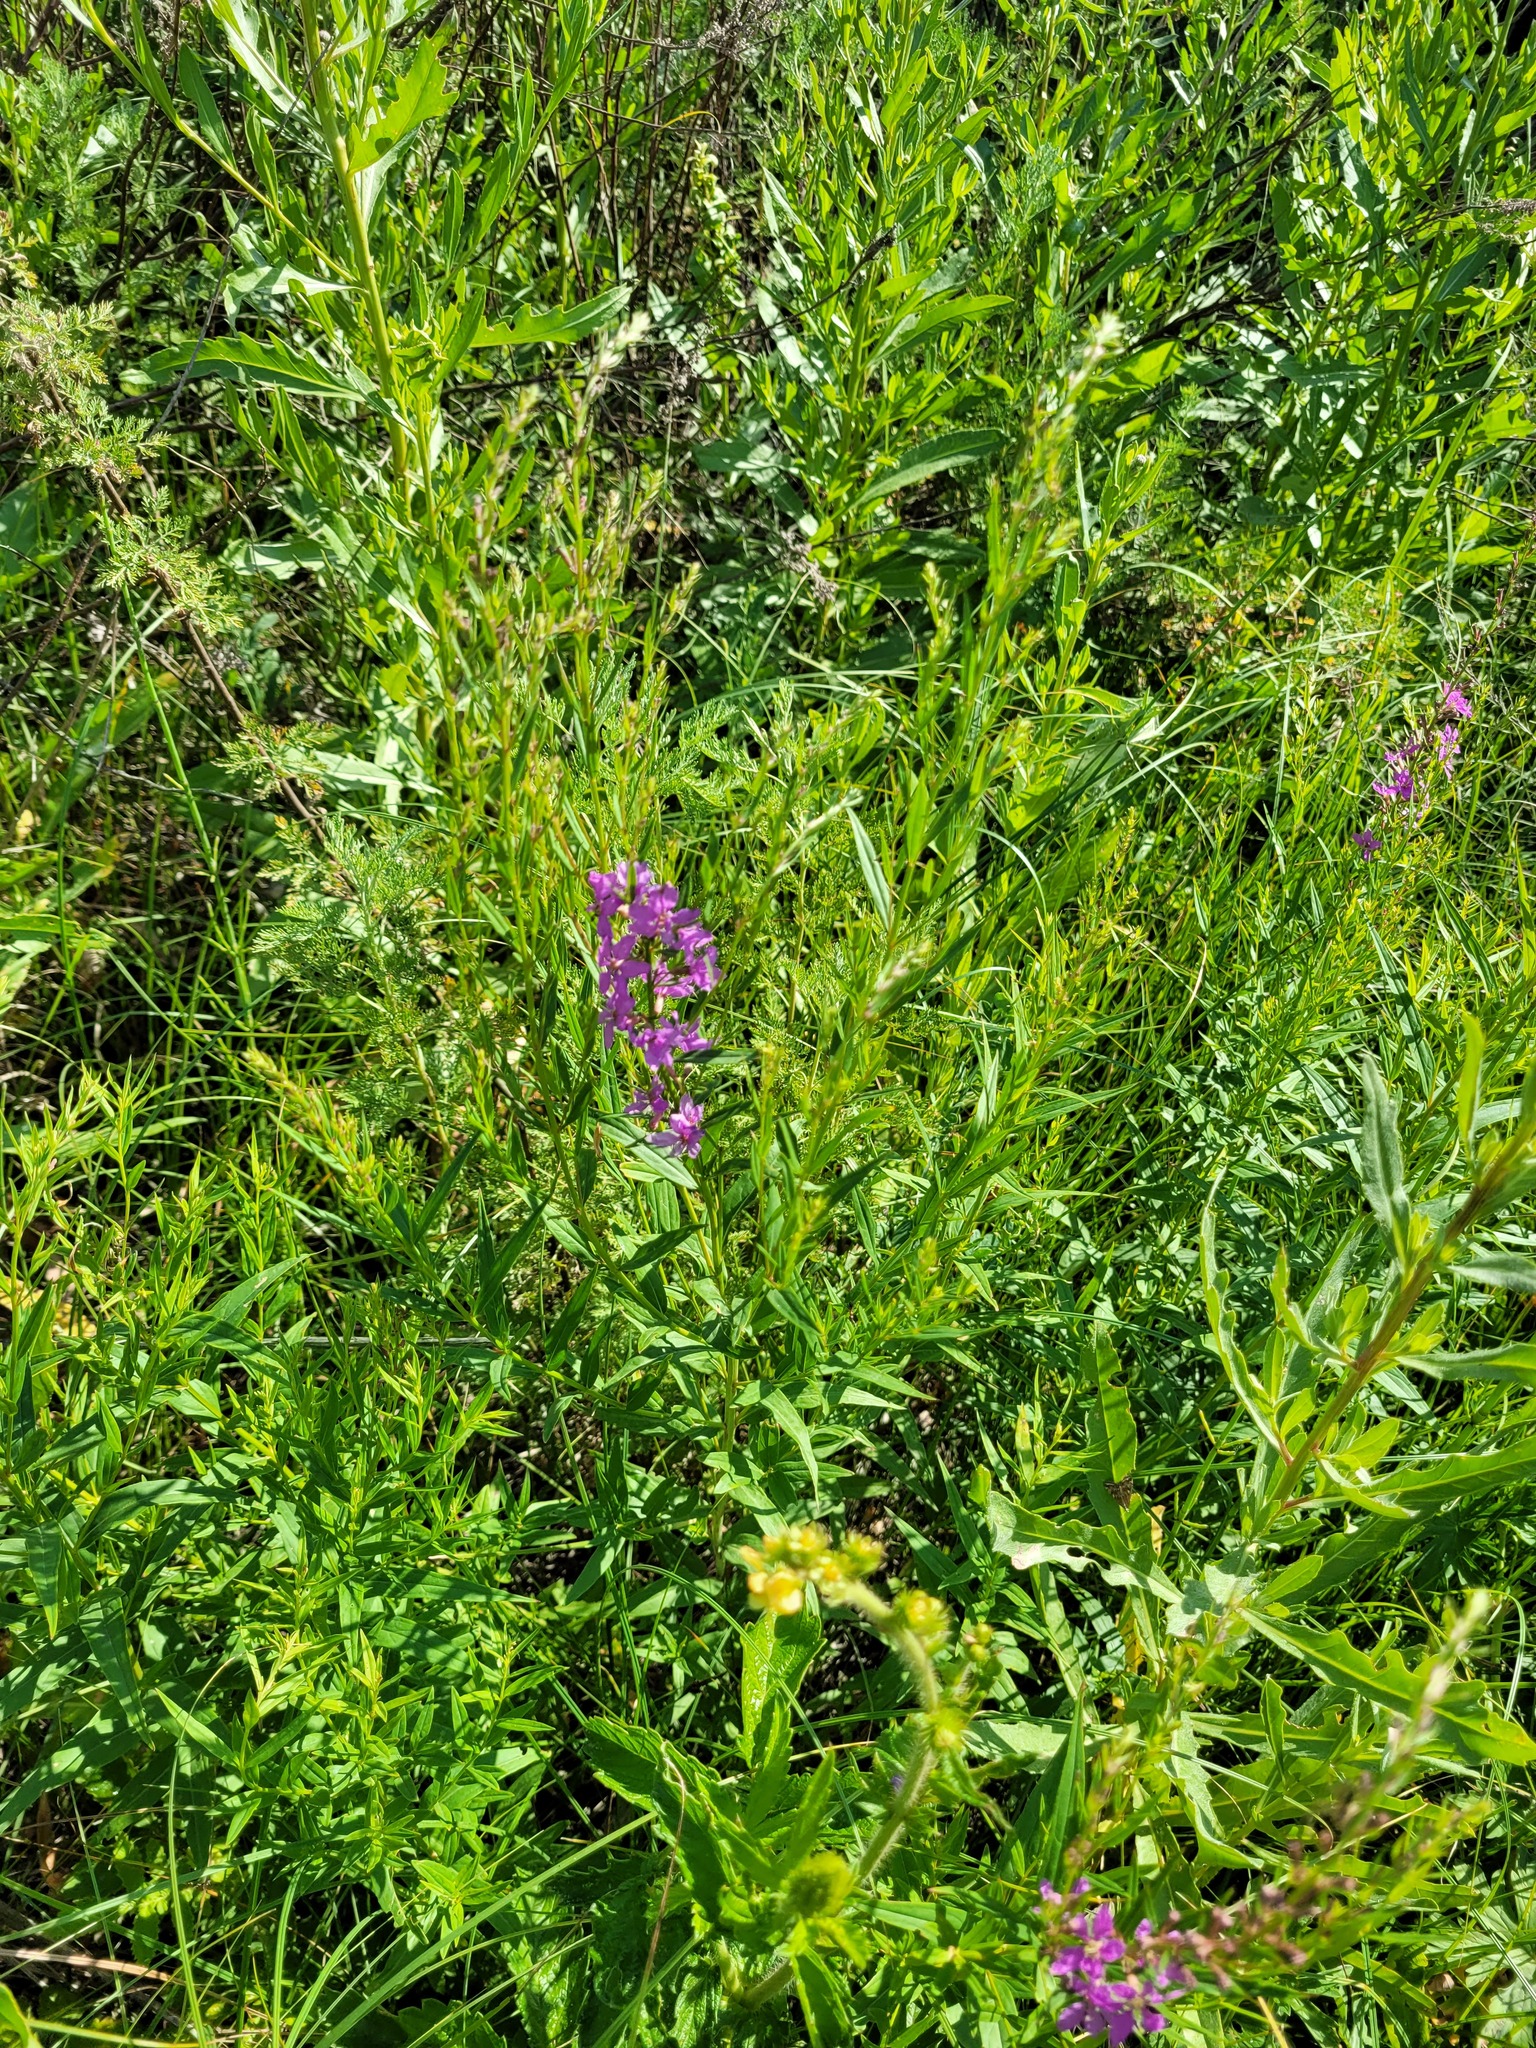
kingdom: Plantae
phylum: Tracheophyta
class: Magnoliopsida
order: Myrtales
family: Lythraceae
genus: Lythrum
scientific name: Lythrum virgatum
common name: European wand loosestrife
